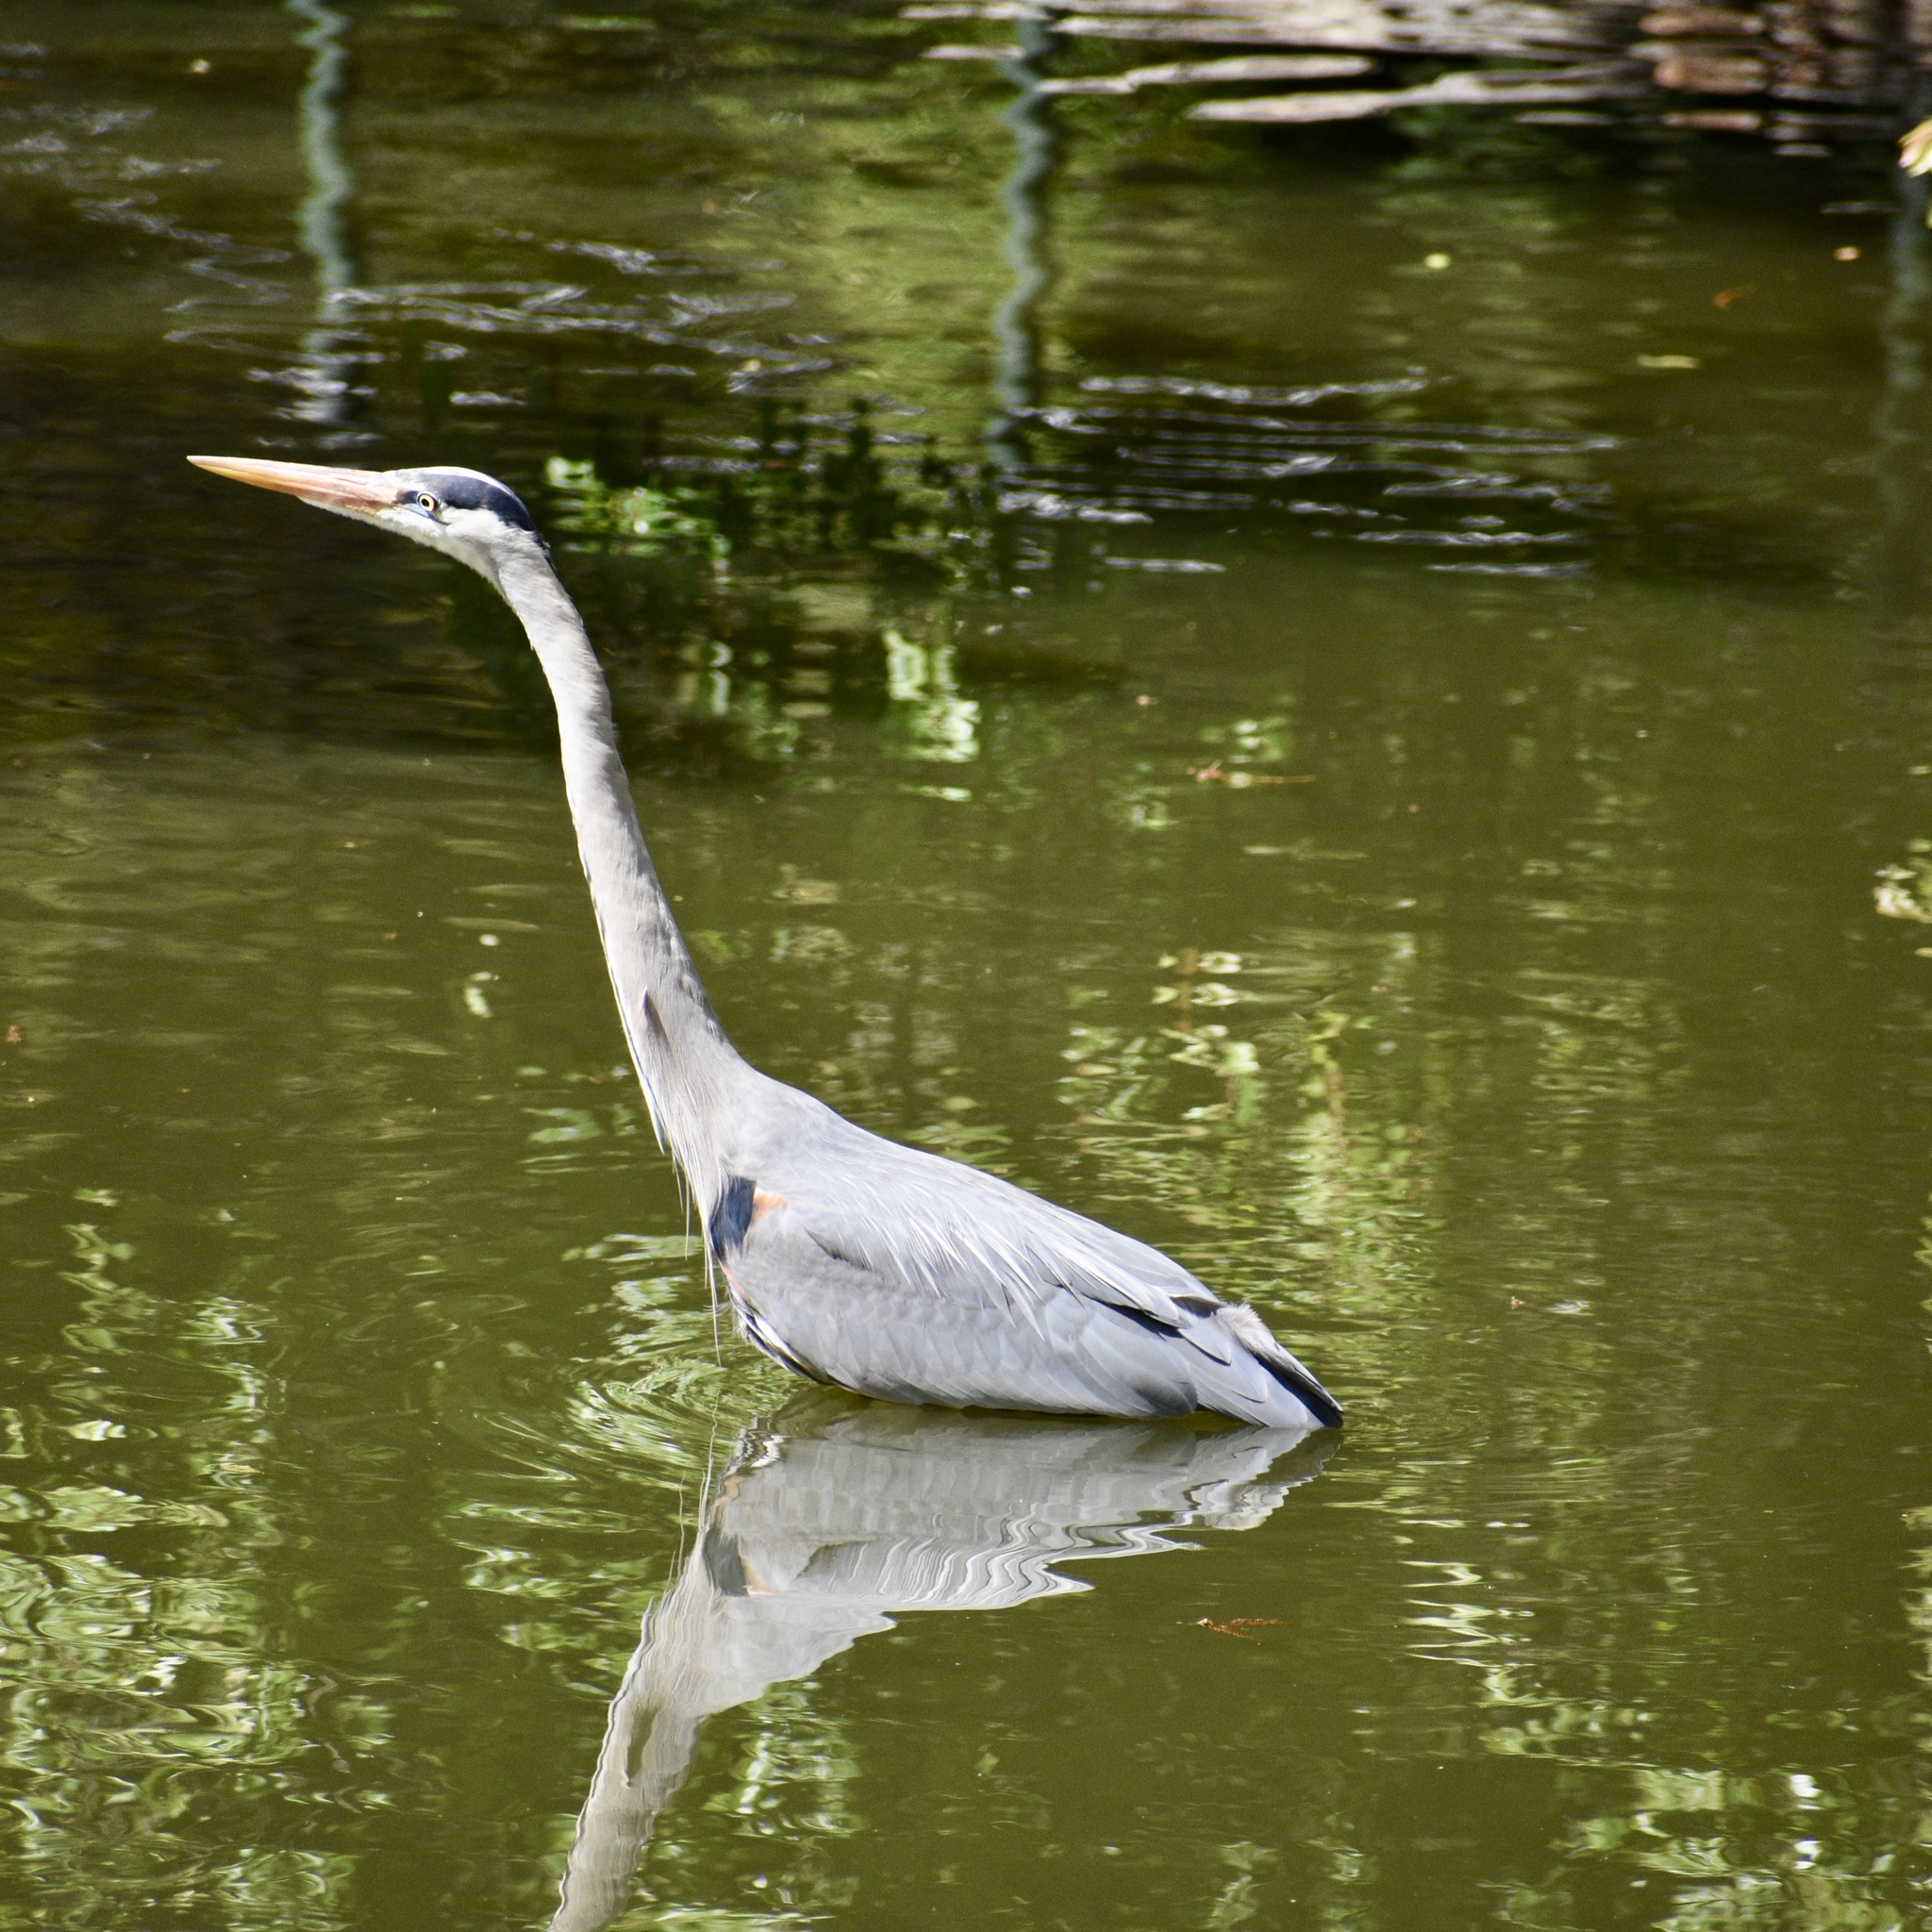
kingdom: Animalia
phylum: Chordata
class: Aves
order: Pelecaniformes
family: Ardeidae
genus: Ardea
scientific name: Ardea herodias
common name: Great blue heron
